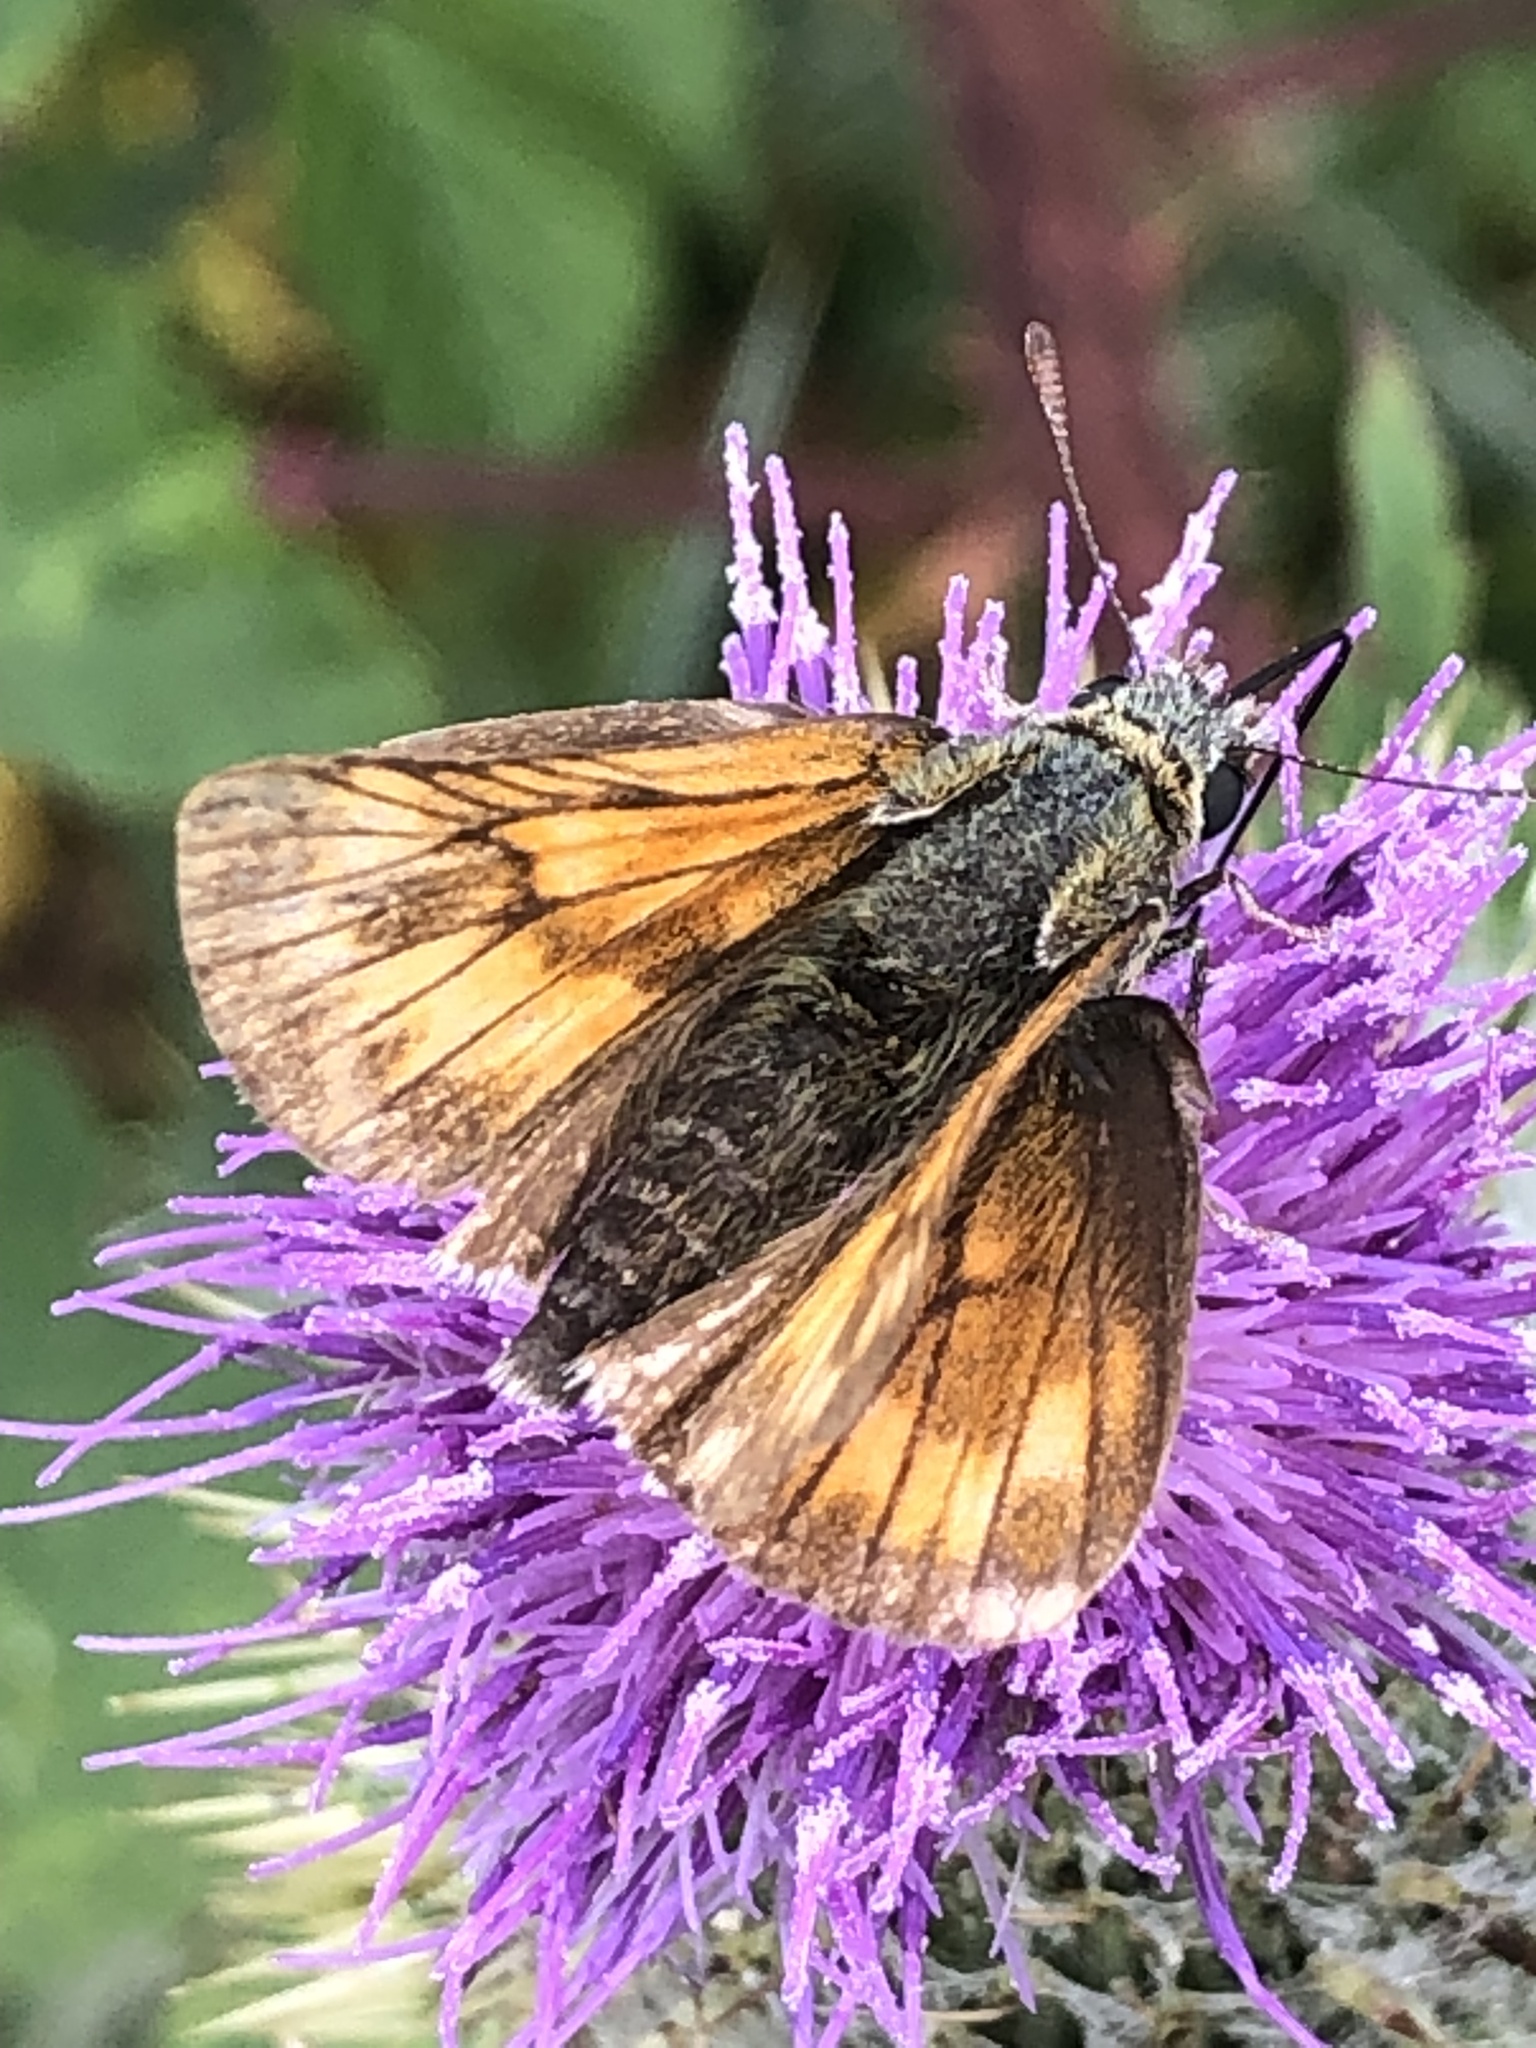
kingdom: Animalia
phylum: Arthropoda
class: Insecta
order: Lepidoptera
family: Hesperiidae
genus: Ochlodes
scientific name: Ochlodes venata
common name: Large skipper
